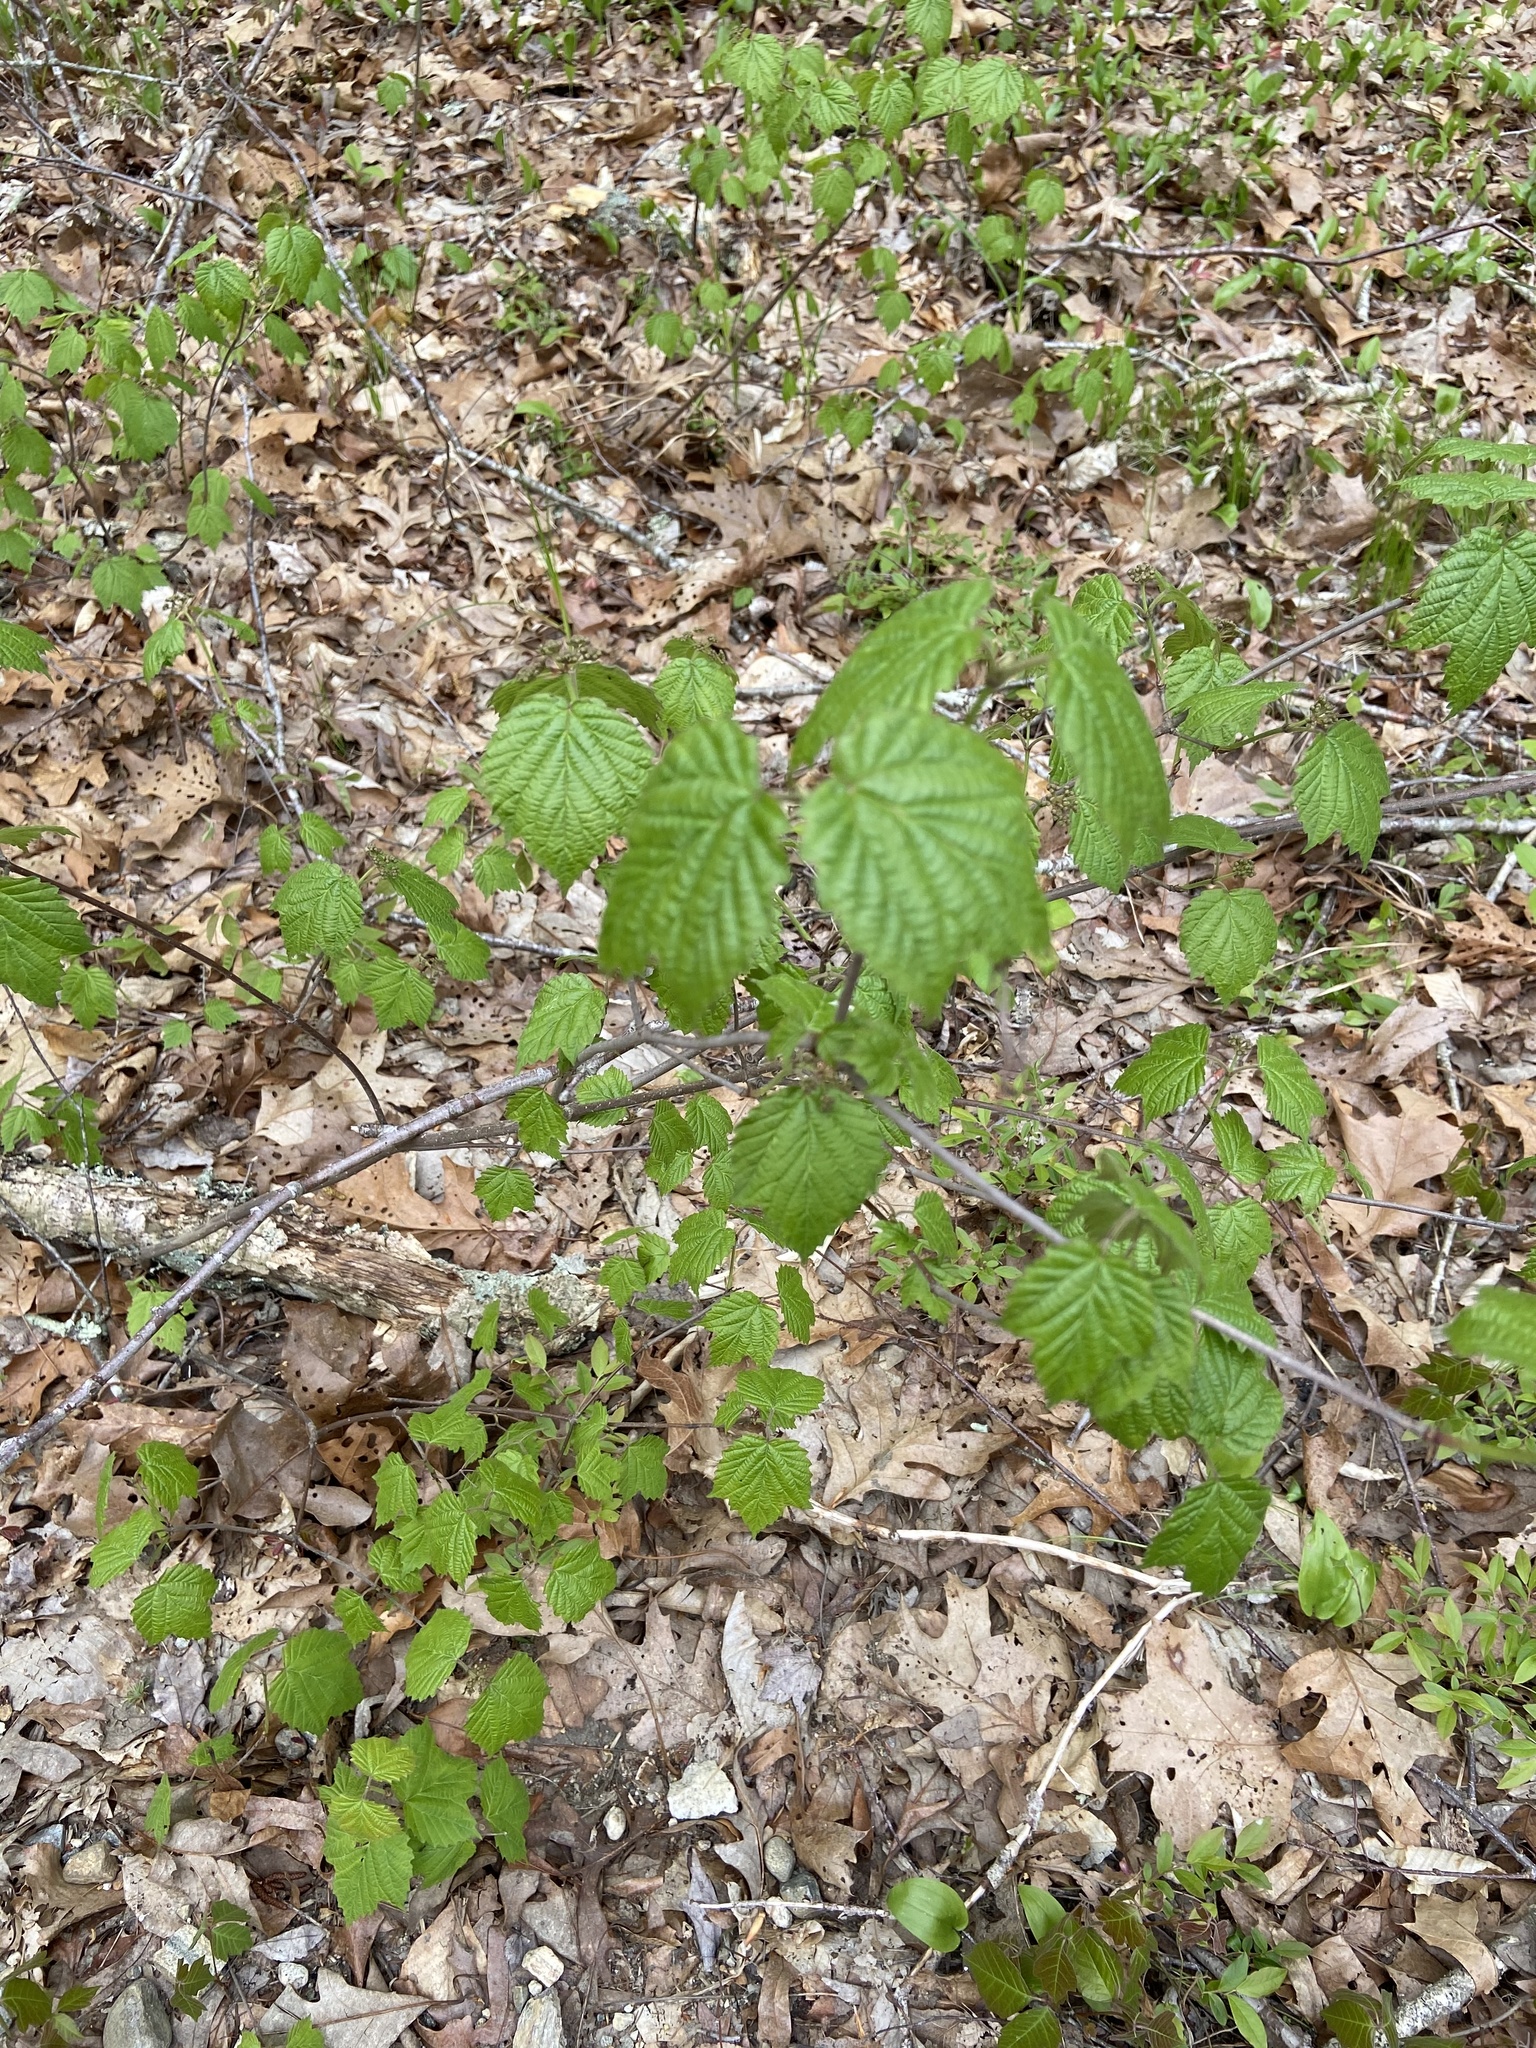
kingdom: Plantae
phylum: Tracheophyta
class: Magnoliopsida
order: Dipsacales
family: Viburnaceae
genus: Viburnum
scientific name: Viburnum acerifolium
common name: Dockmackie
